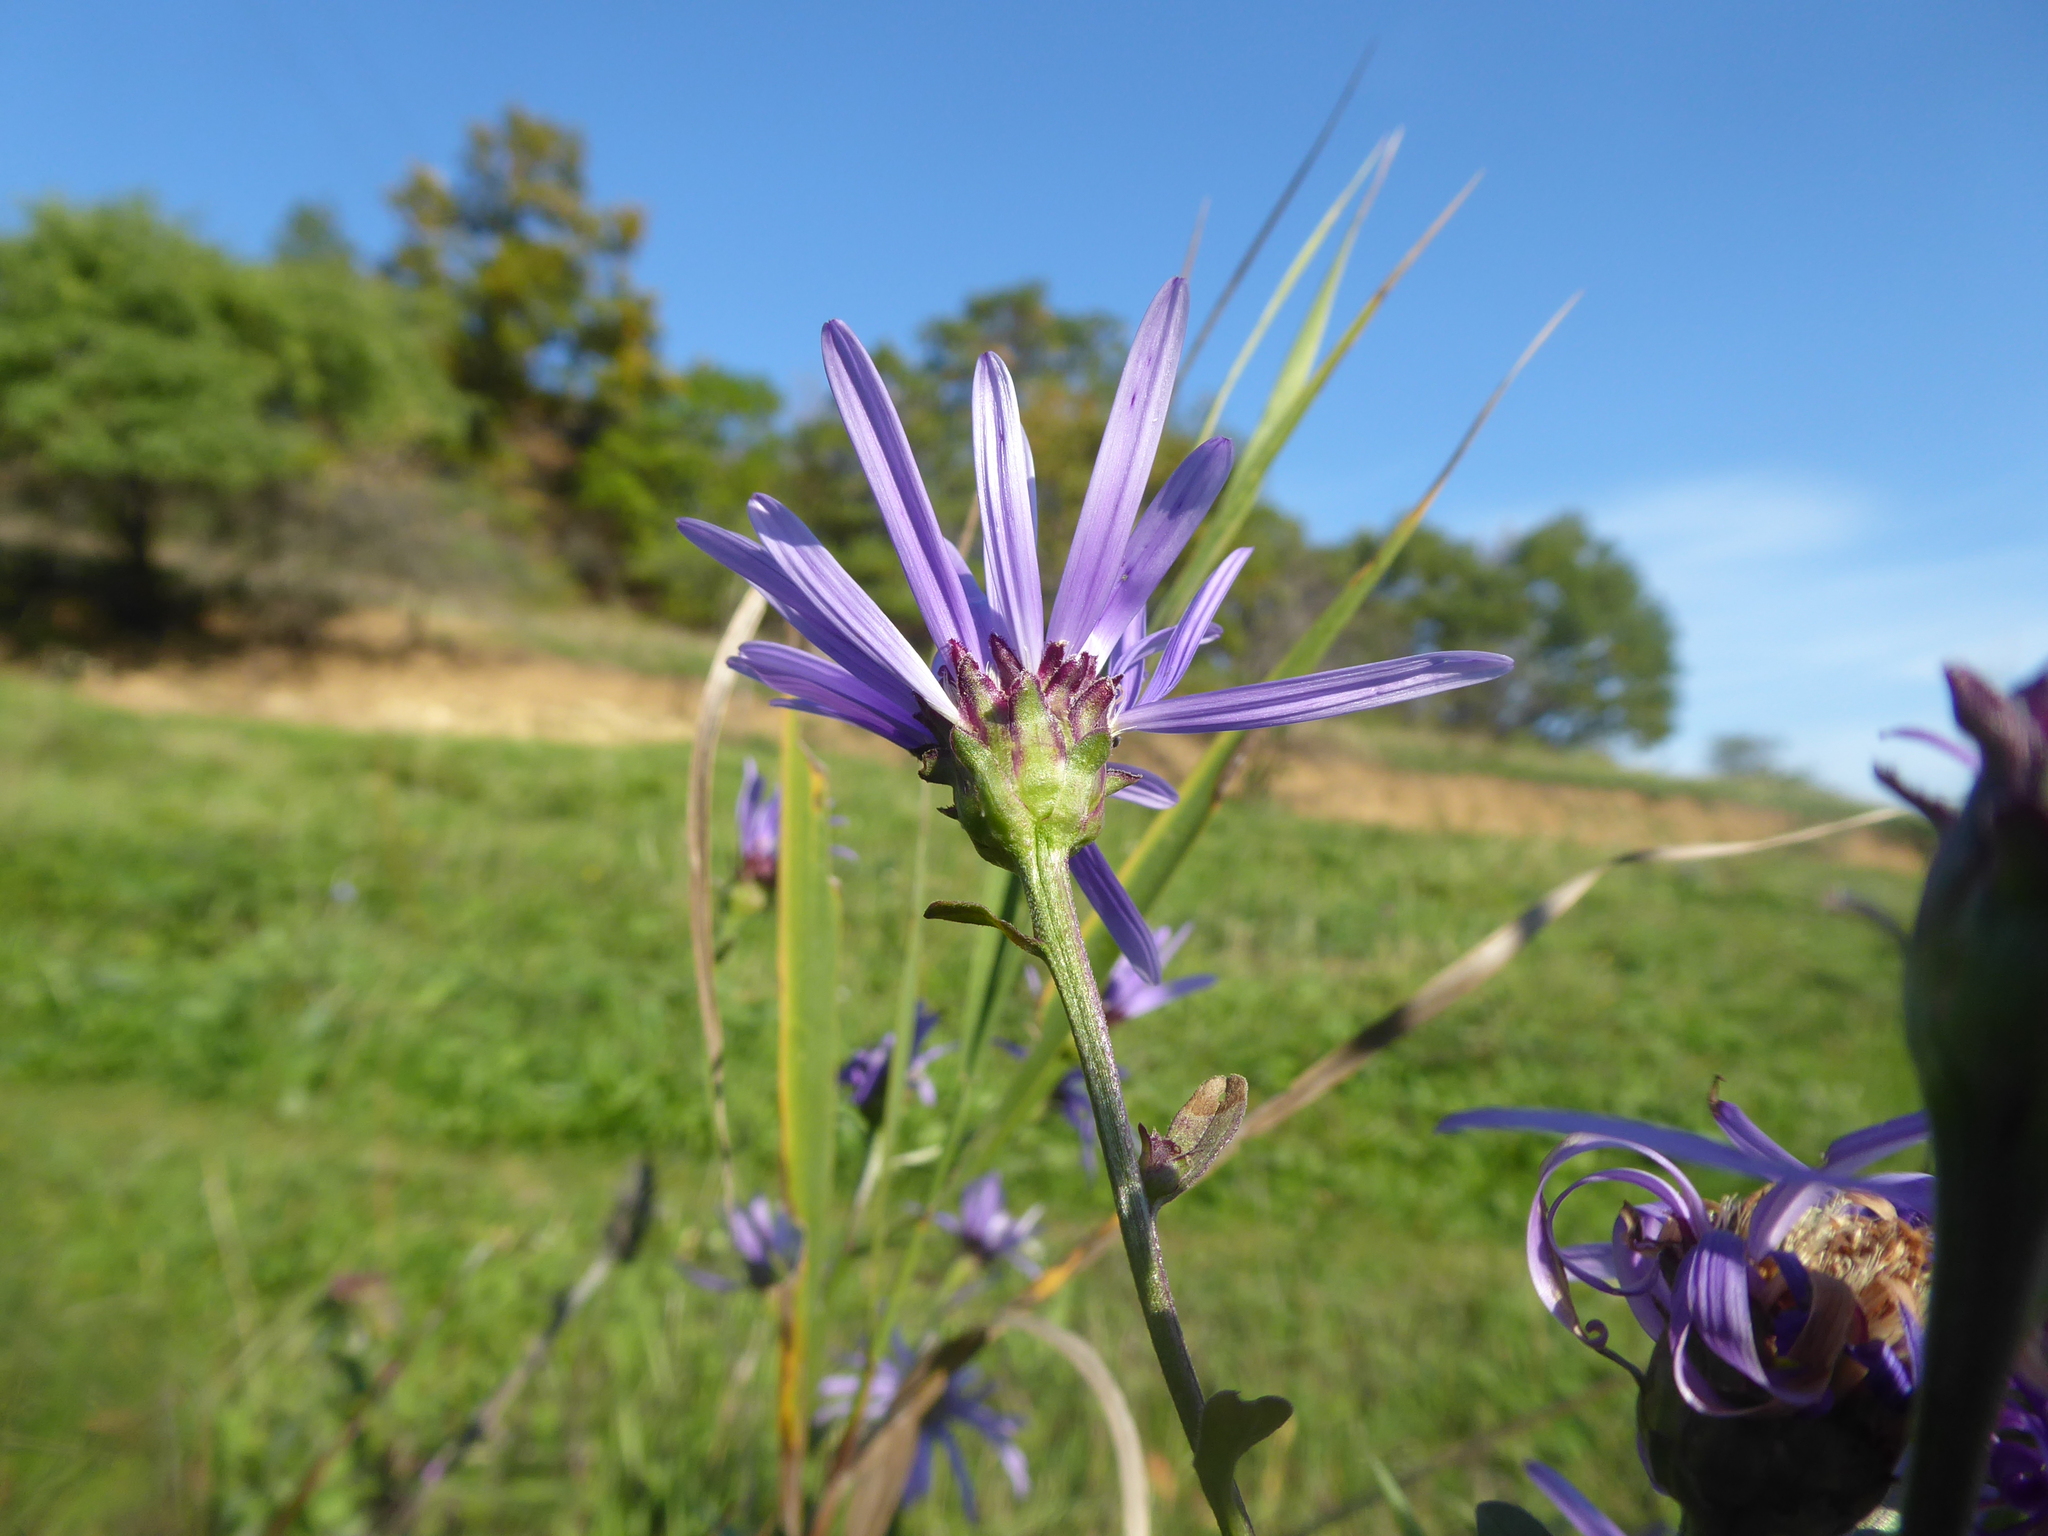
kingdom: Plantae
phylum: Tracheophyta
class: Magnoliopsida
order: Asterales
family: Asteraceae
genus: Aster
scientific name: Aster amellus
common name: European michaelmas daisy
